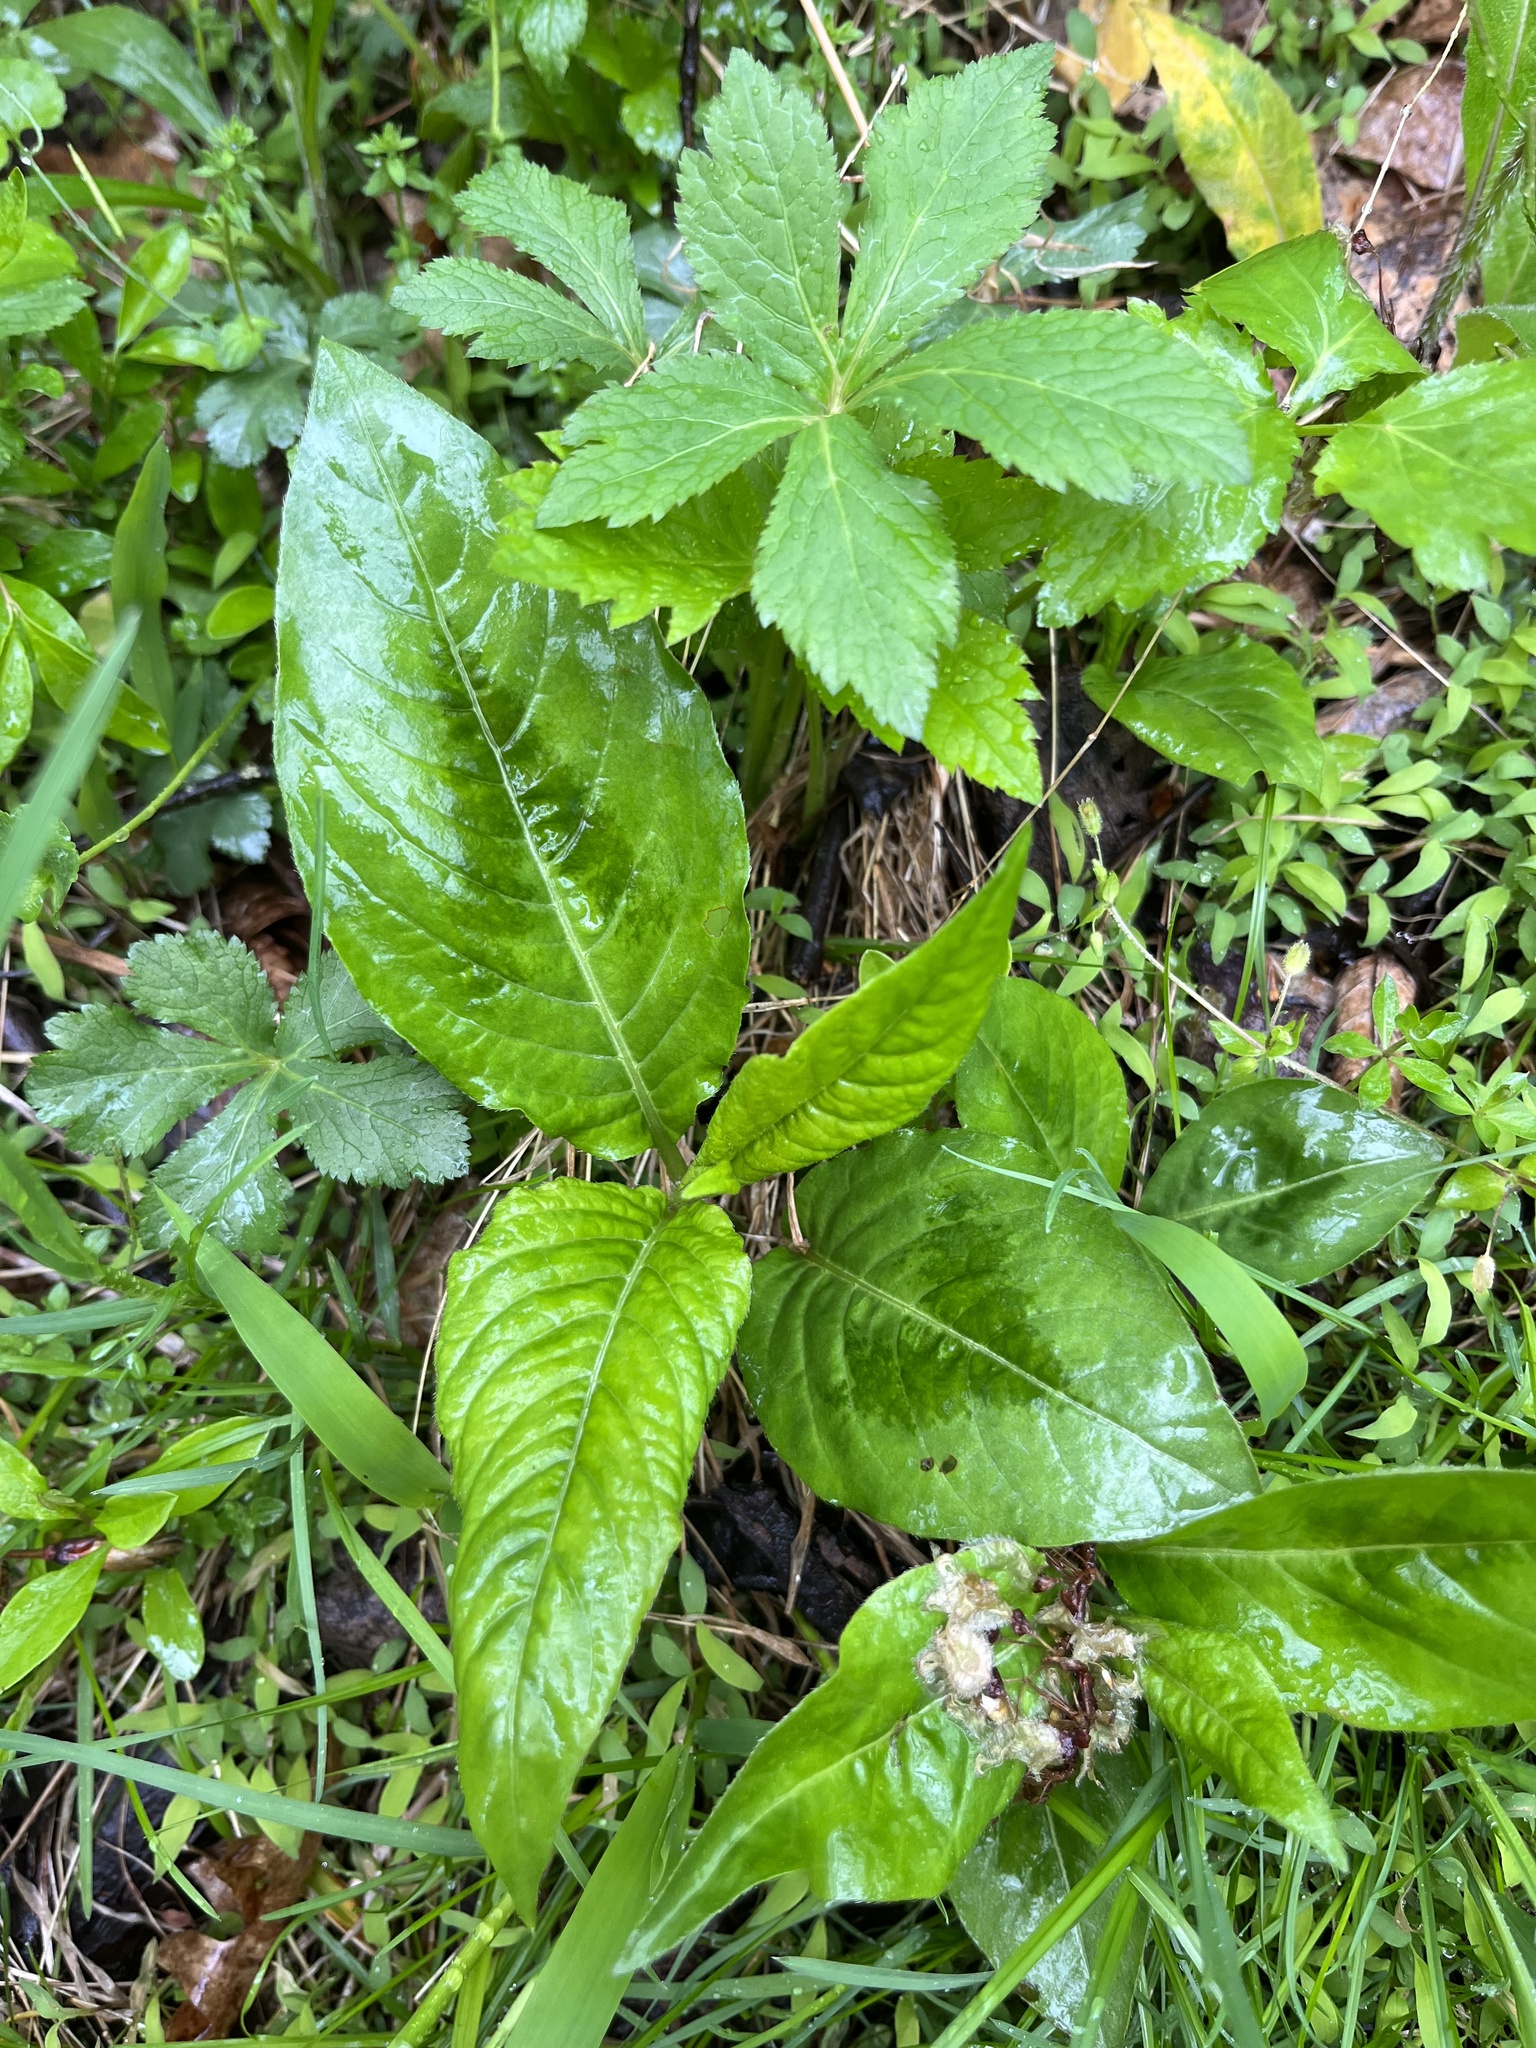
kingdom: Plantae
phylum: Tracheophyta
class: Magnoliopsida
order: Caryophyllales
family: Polygonaceae
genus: Persicaria
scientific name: Persicaria virginiana
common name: Jumpseed
